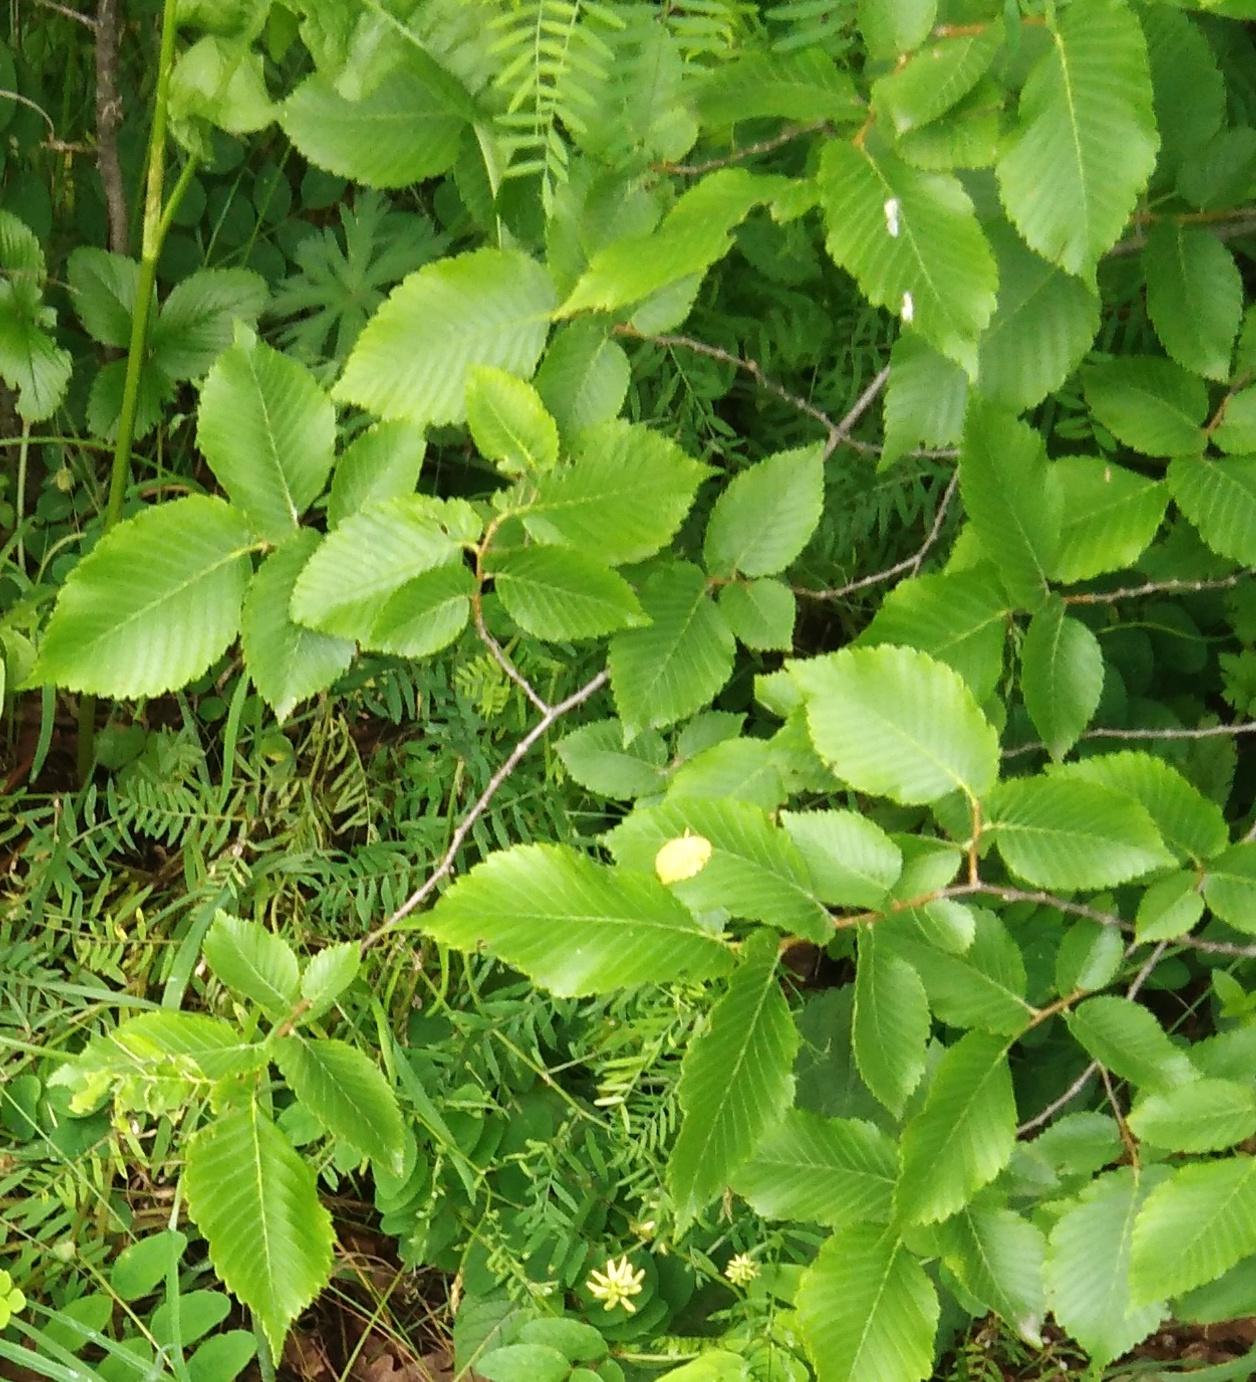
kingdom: Plantae
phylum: Tracheophyta
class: Magnoliopsida
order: Rosales
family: Ulmaceae
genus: Ulmus
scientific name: Ulmus laevis
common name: European white-elm
